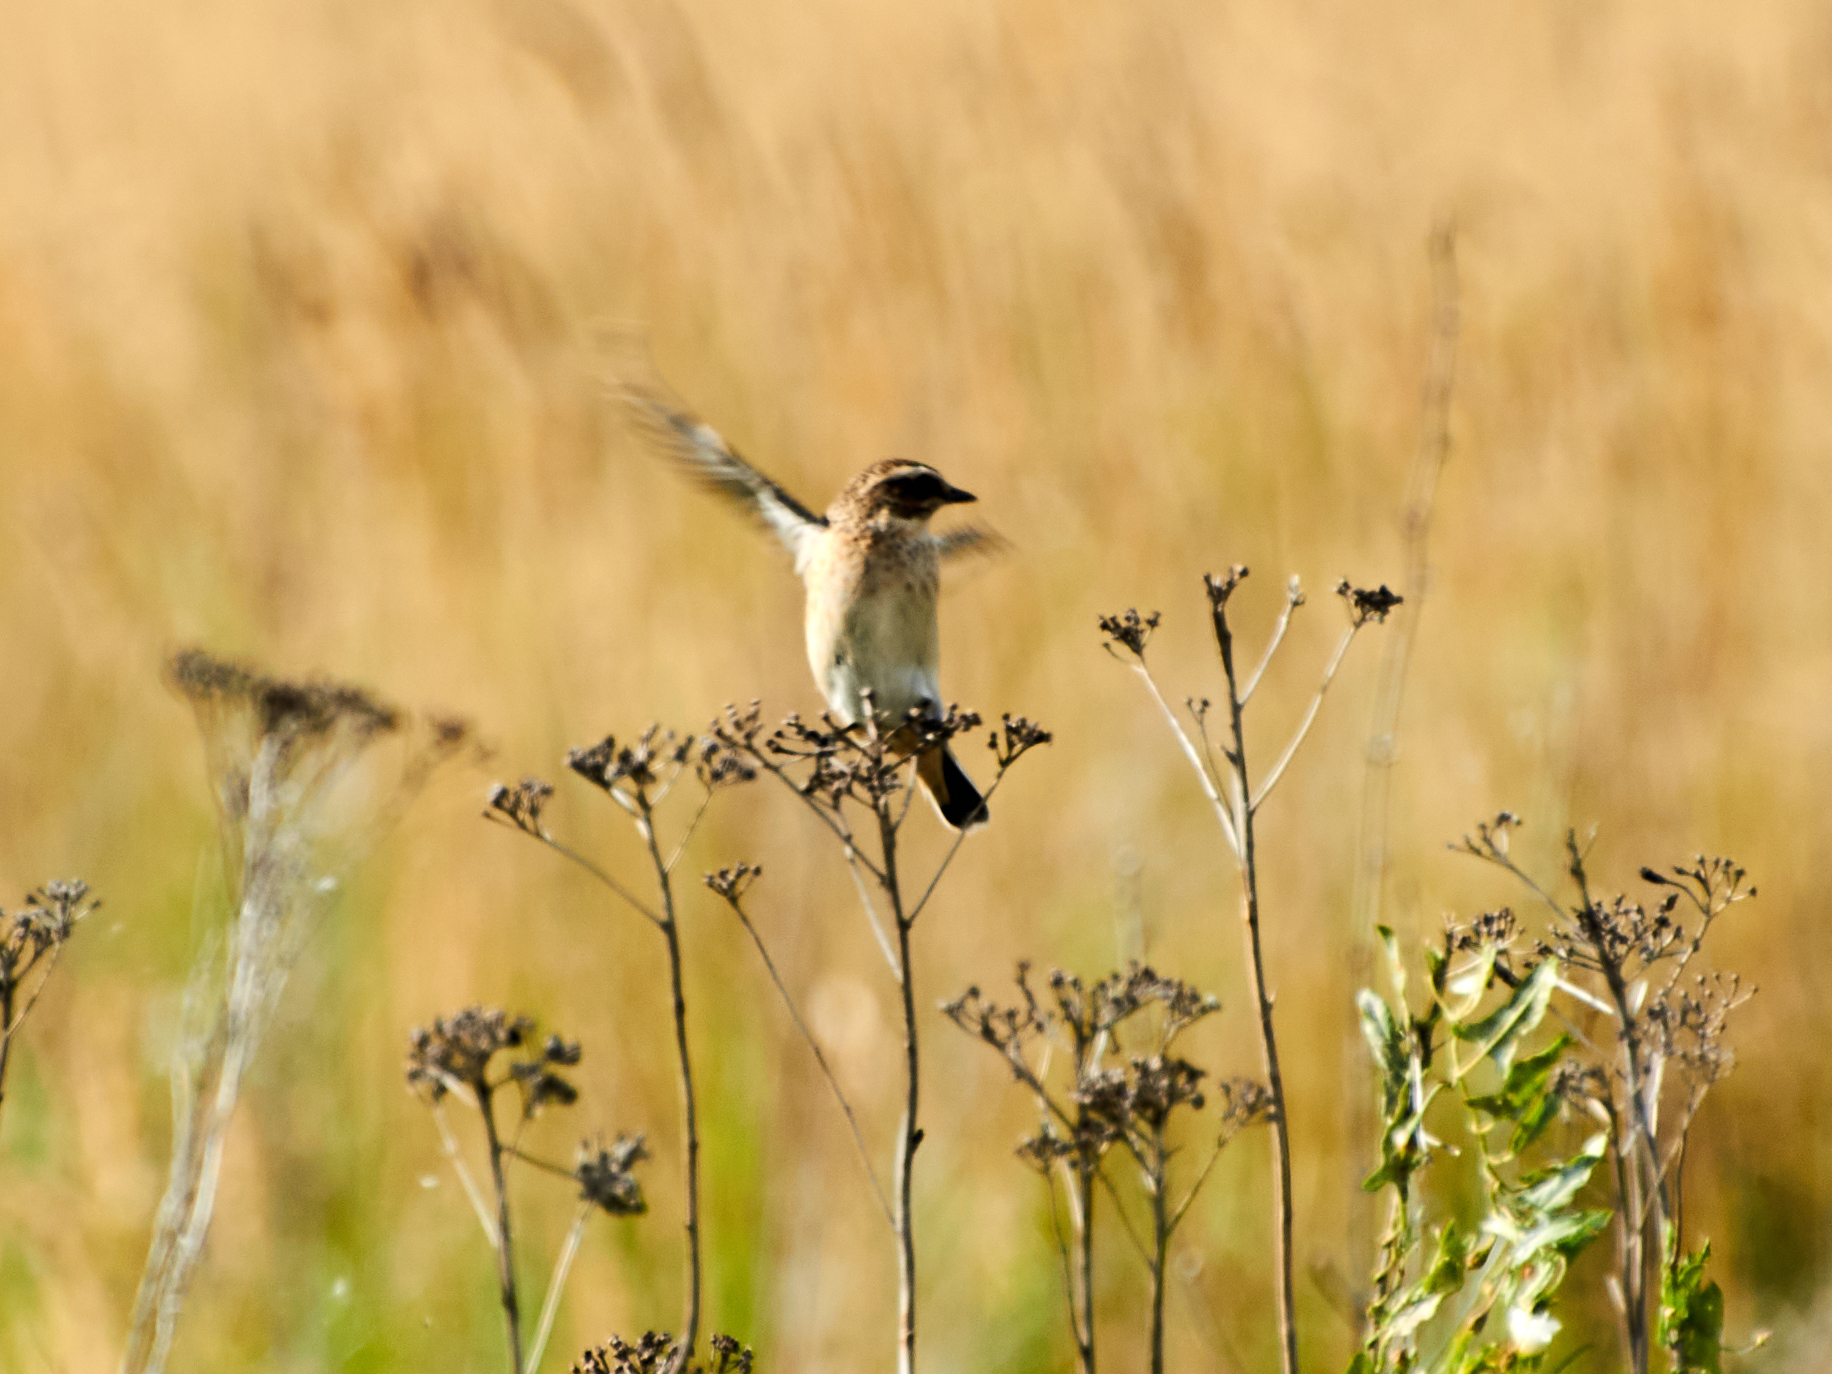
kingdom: Animalia
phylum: Chordata
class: Aves
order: Passeriformes
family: Muscicapidae
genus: Saxicola
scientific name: Saxicola rubetra
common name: Whinchat
